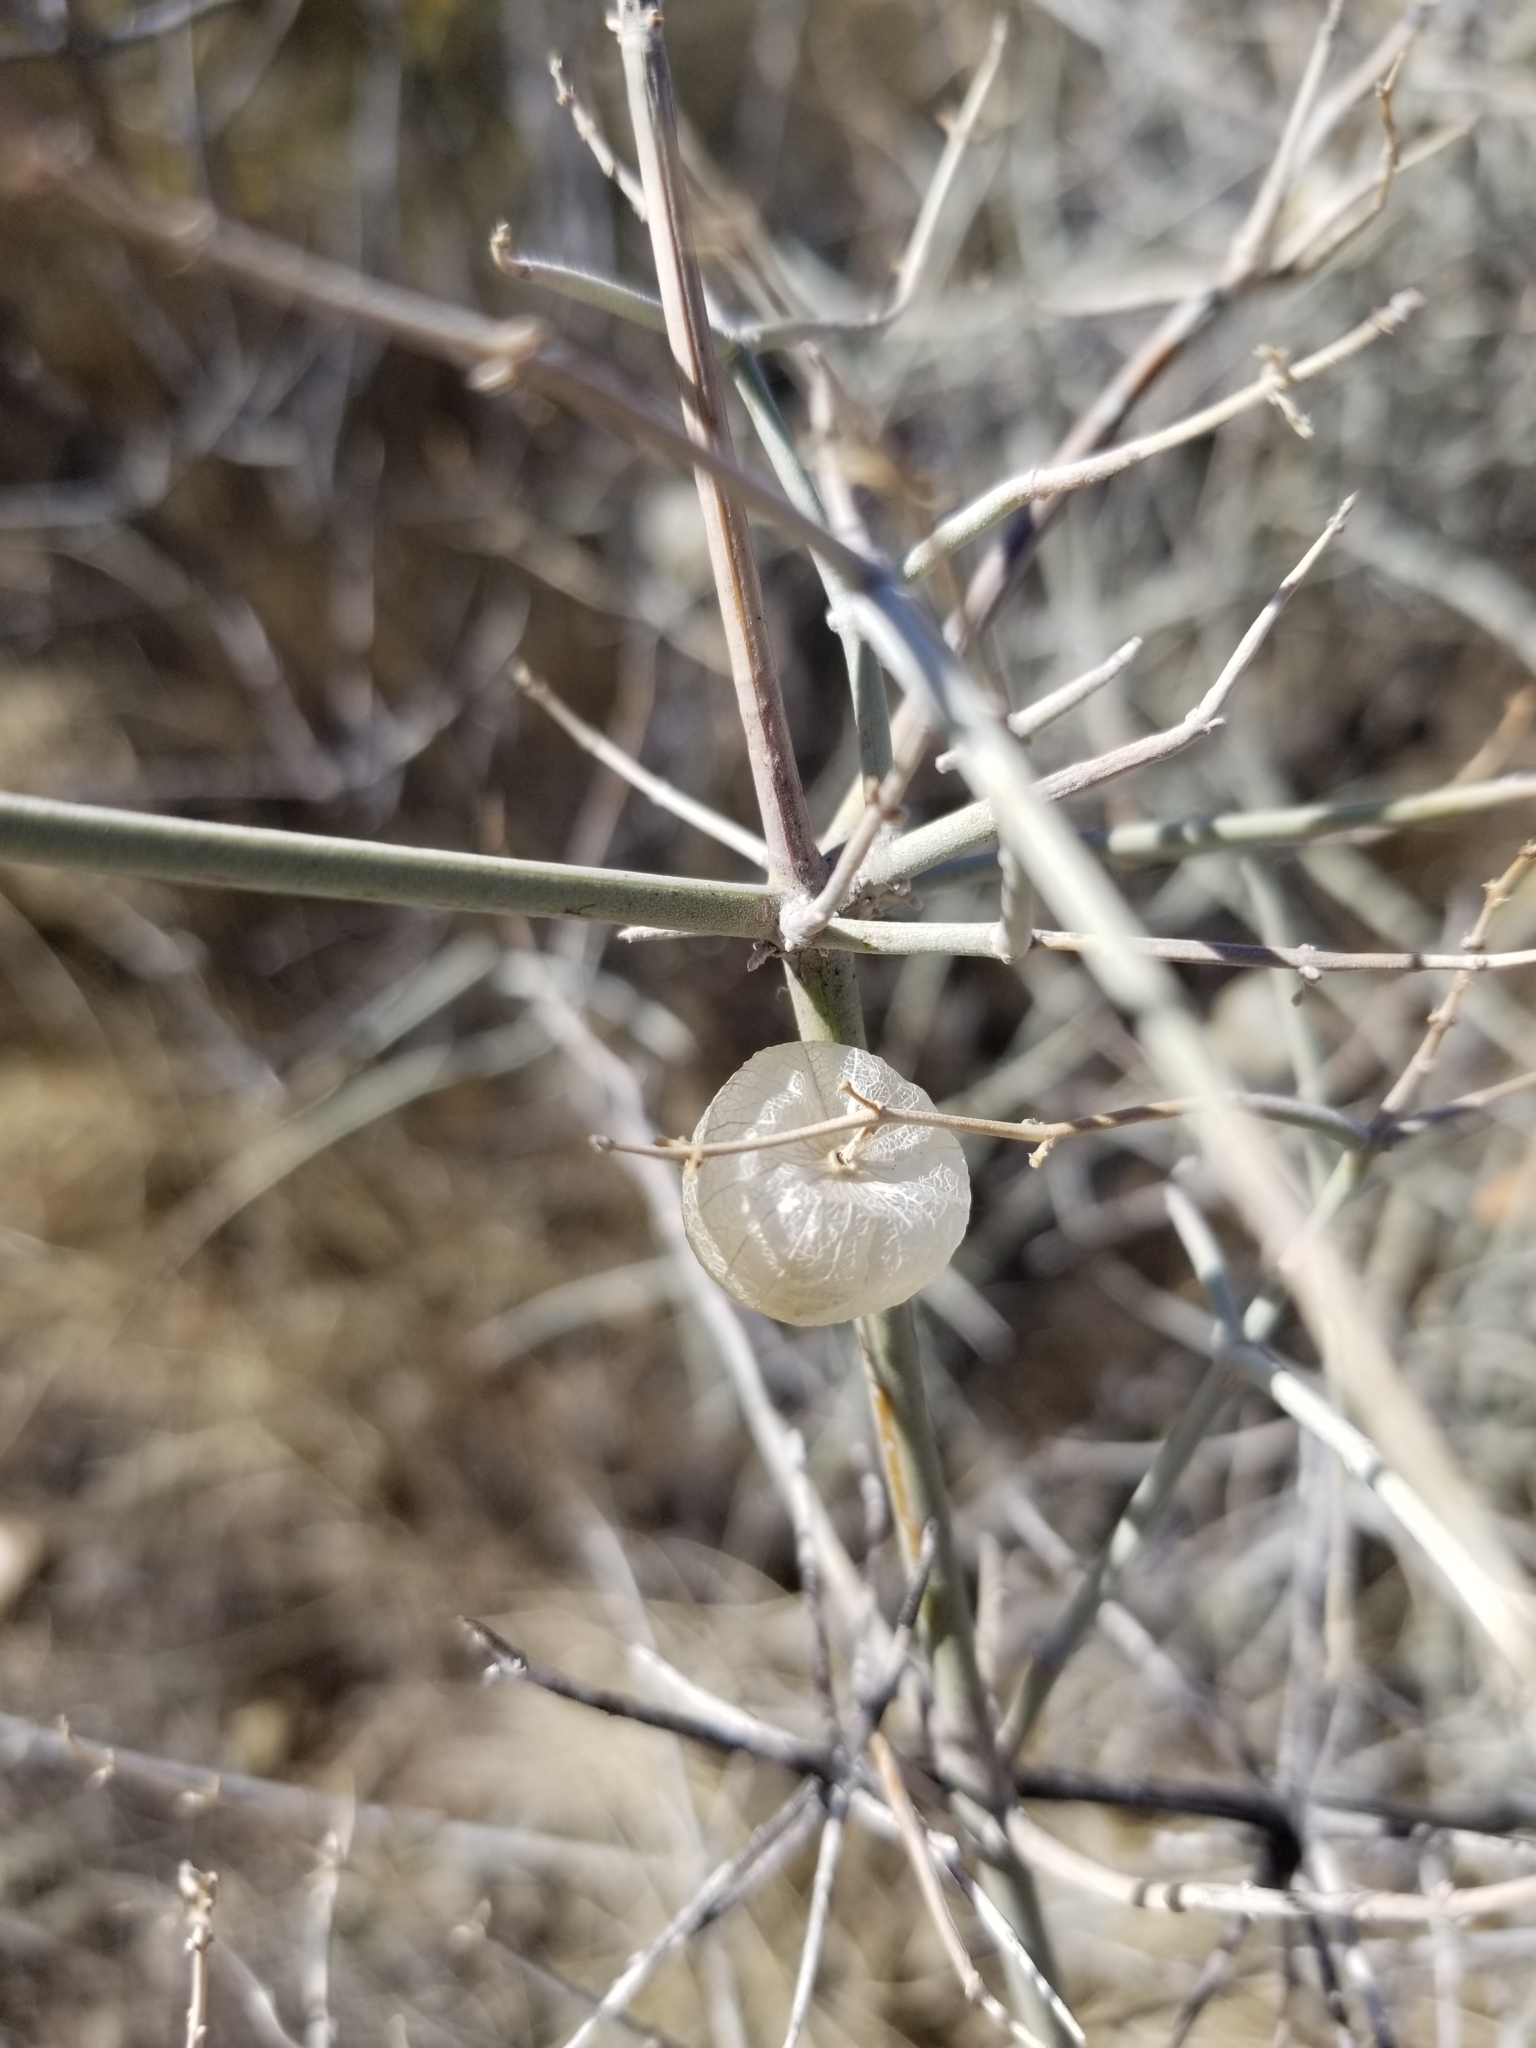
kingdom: Plantae
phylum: Tracheophyta
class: Magnoliopsida
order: Lamiales
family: Lamiaceae
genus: Scutellaria
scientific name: Scutellaria mexicana
